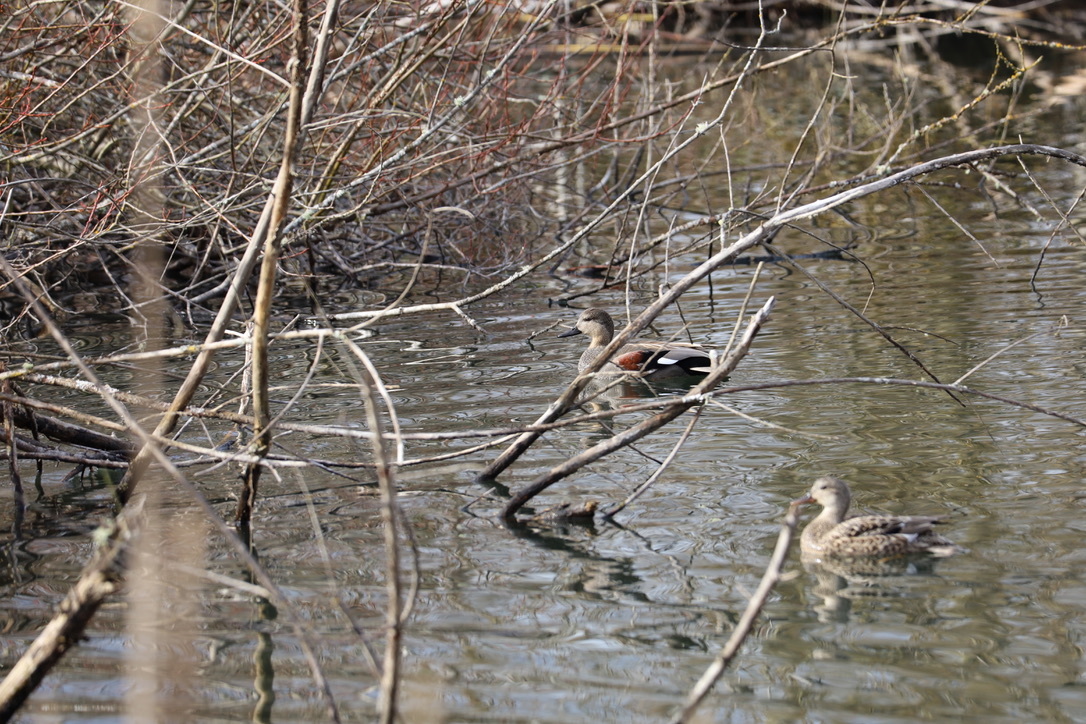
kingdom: Animalia
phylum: Chordata
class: Aves
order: Anseriformes
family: Anatidae
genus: Mareca
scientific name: Mareca strepera
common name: Gadwall
